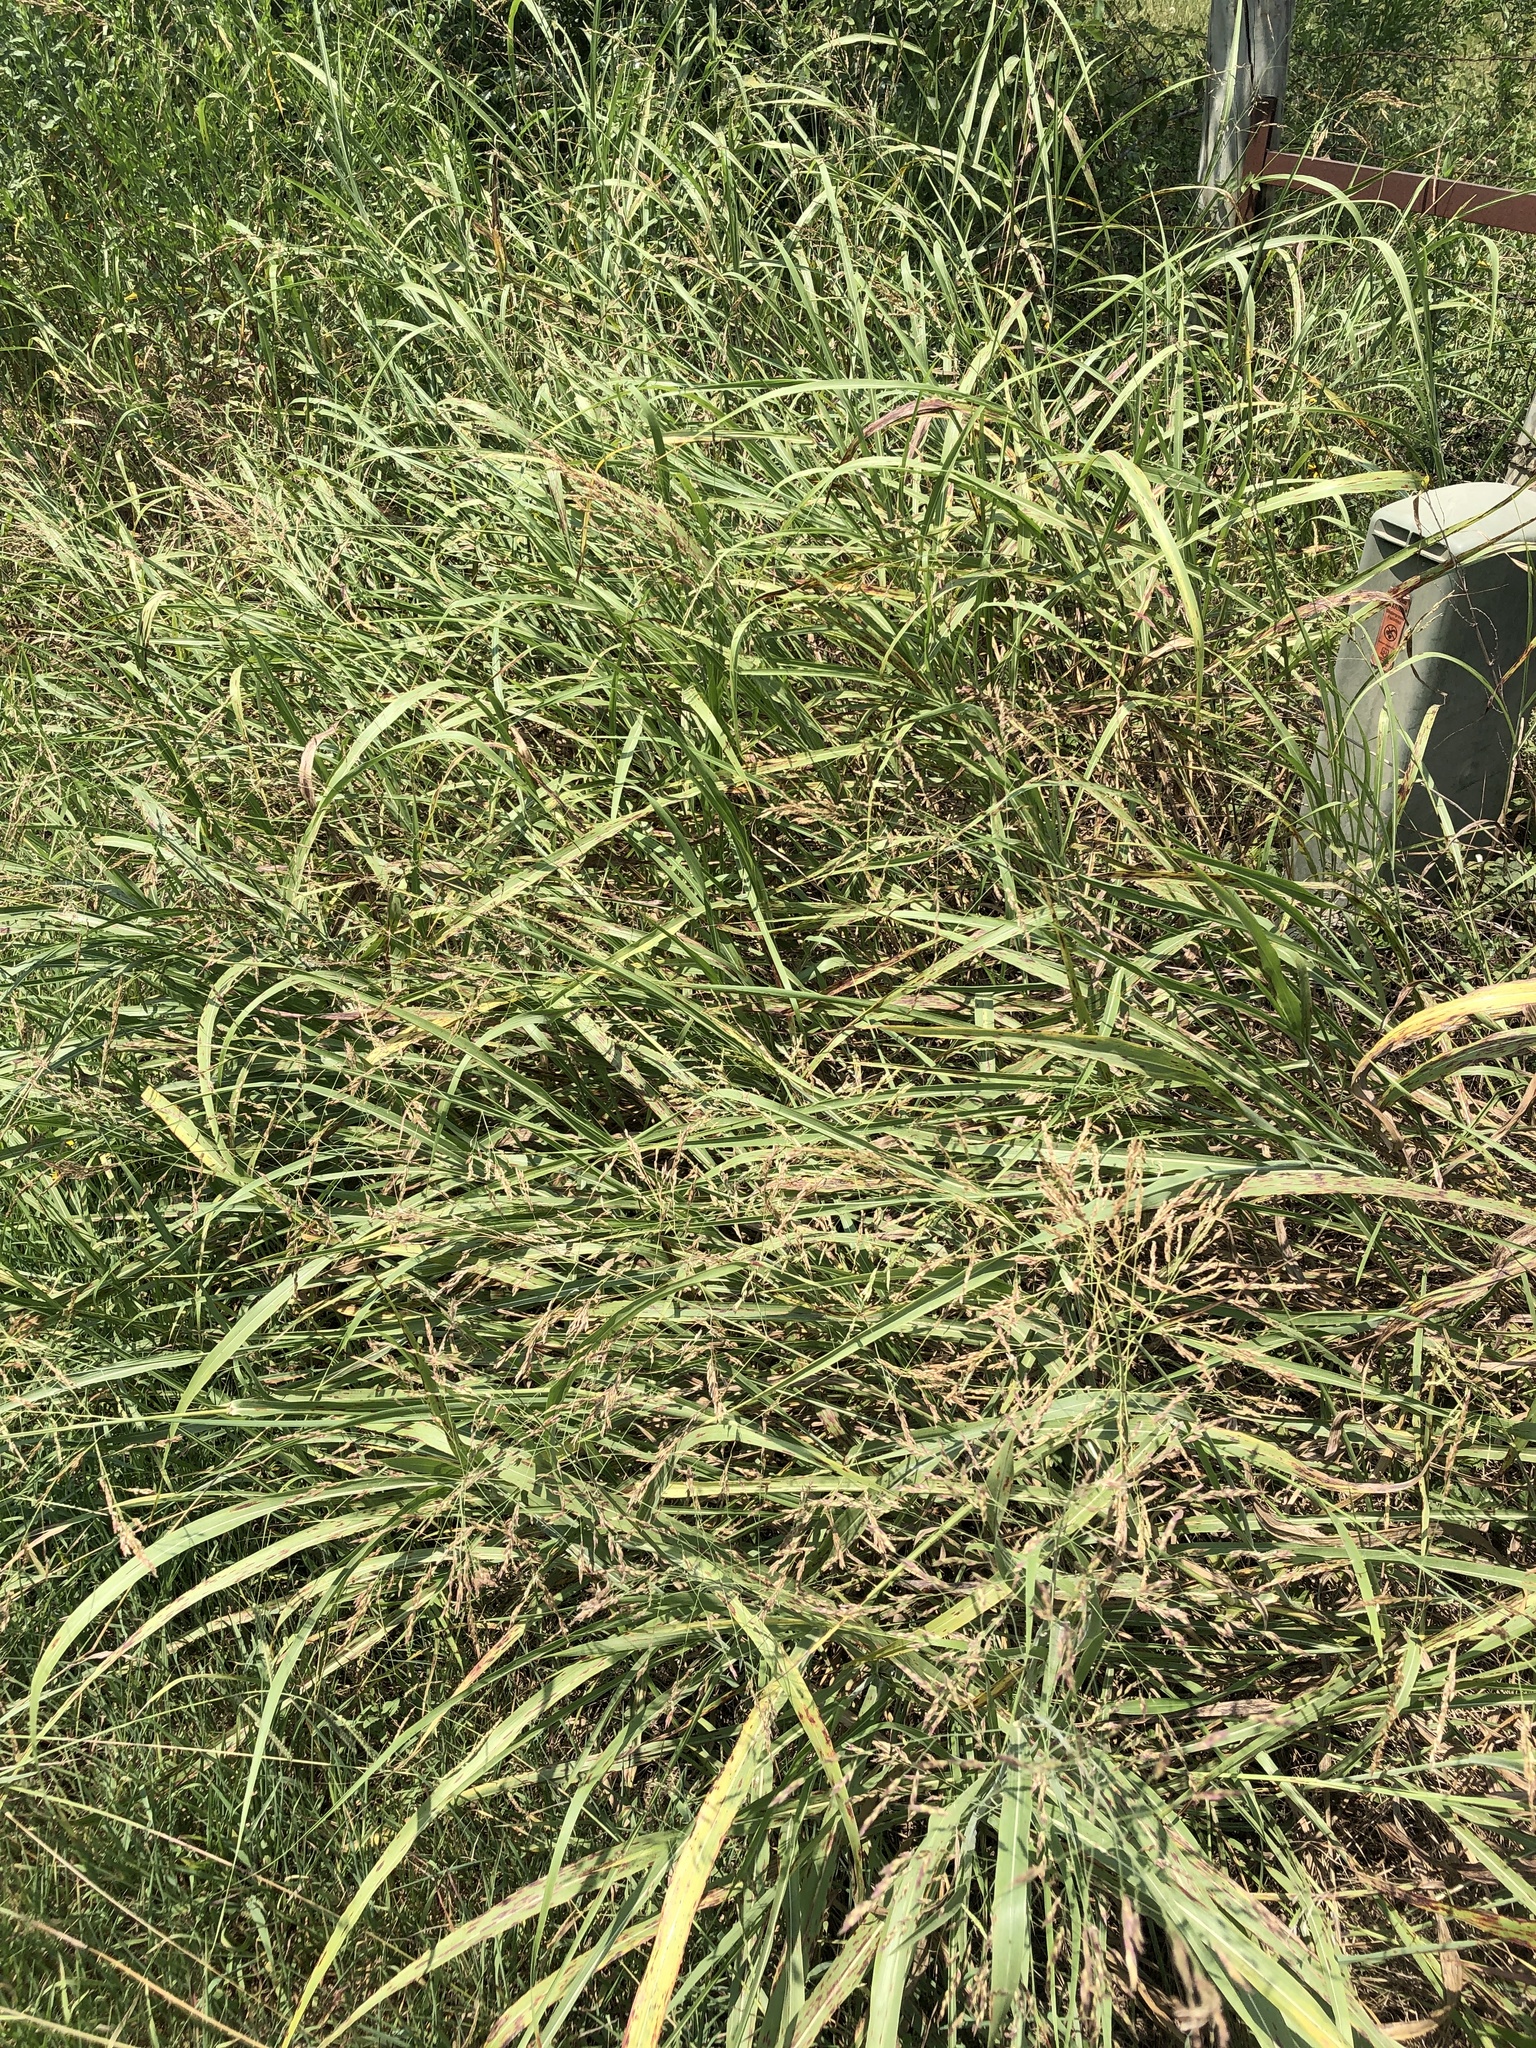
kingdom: Plantae
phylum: Tracheophyta
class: Liliopsida
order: Poales
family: Poaceae
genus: Sorghum
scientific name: Sorghum halepense
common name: Johnson-grass
